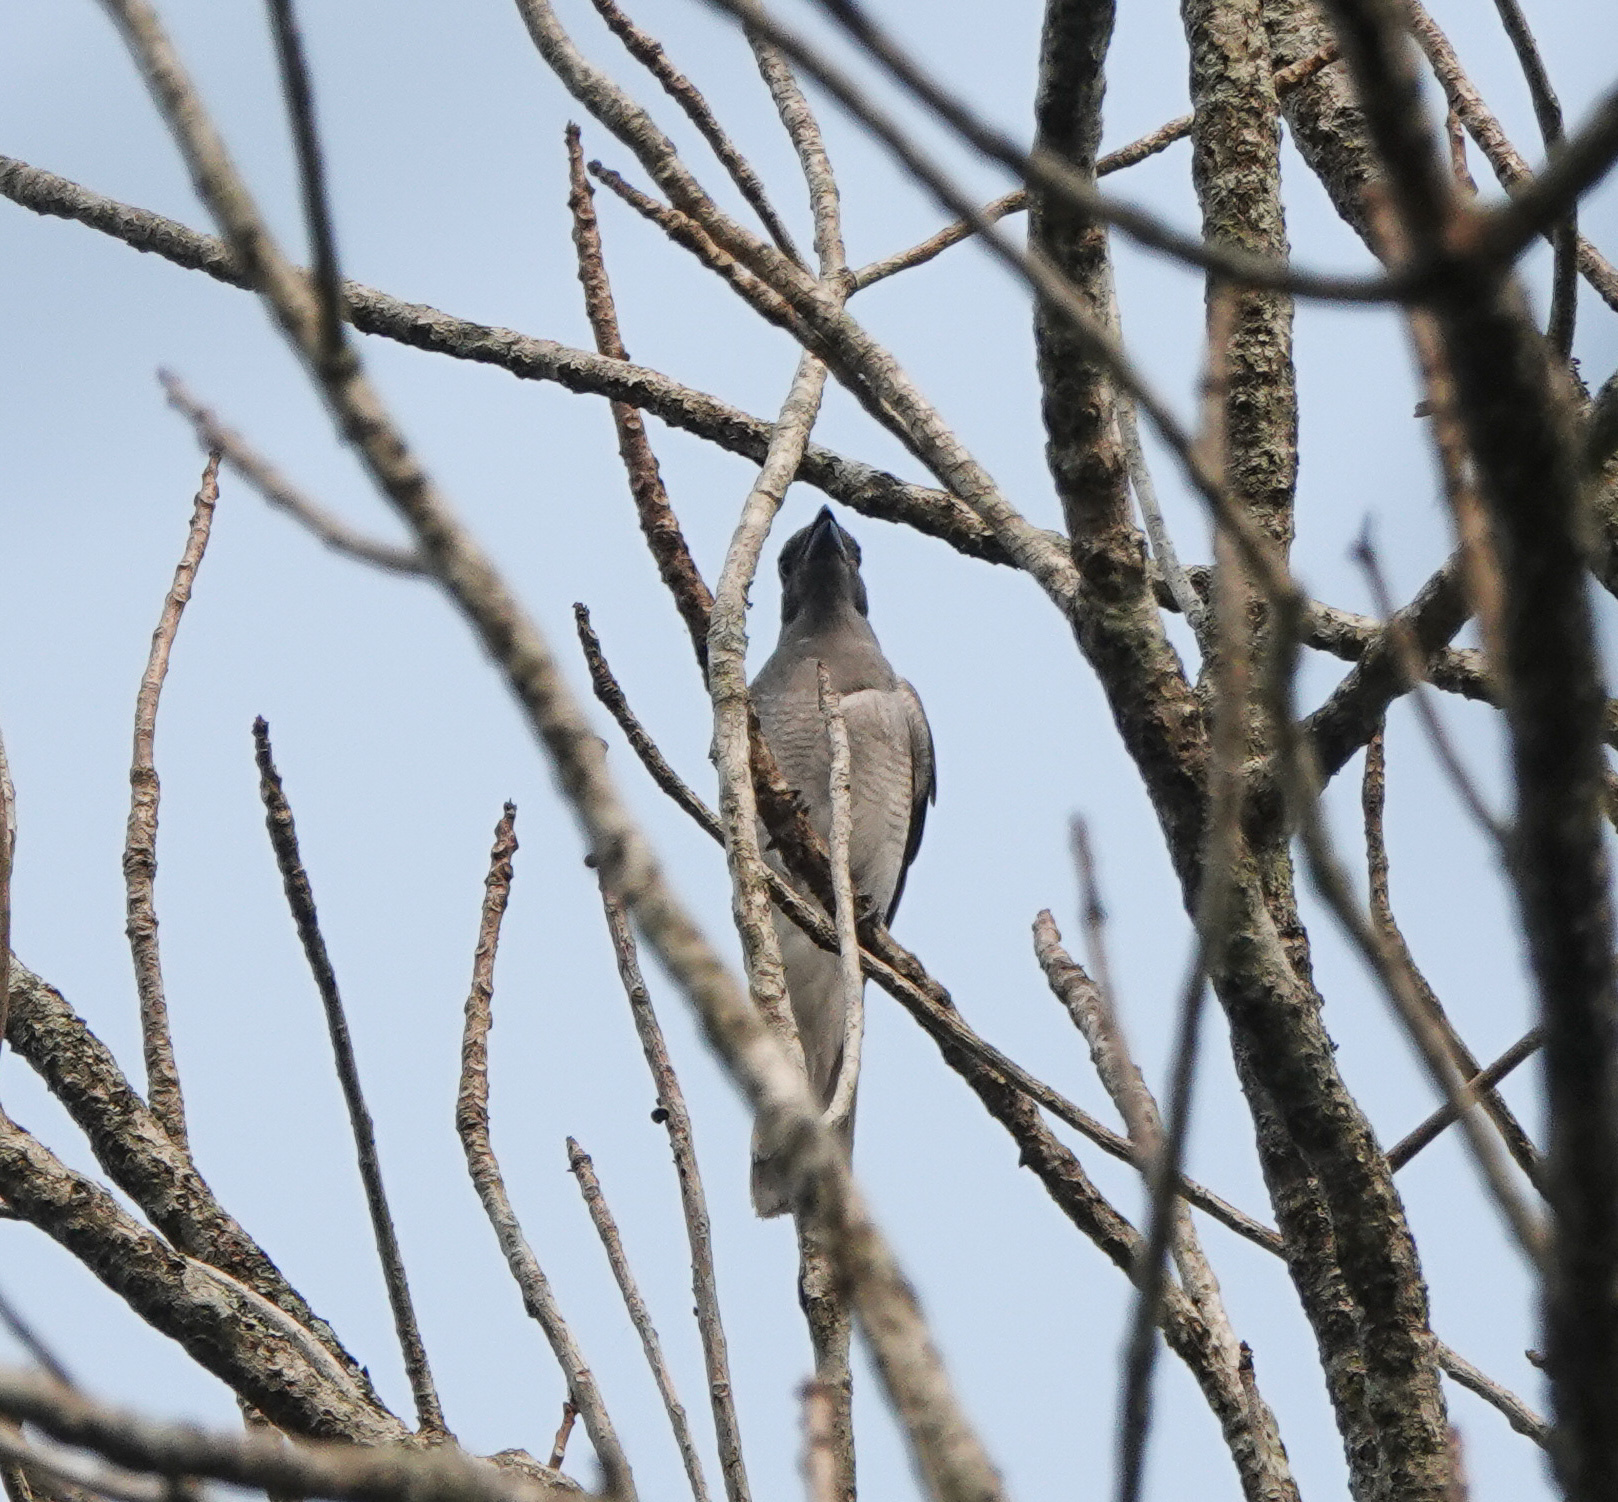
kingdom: Animalia
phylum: Chordata
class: Aves
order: Passeriformes
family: Campephagidae
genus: Coracina
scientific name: Coracina melaschistos
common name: Black-winged cuckooshrike
